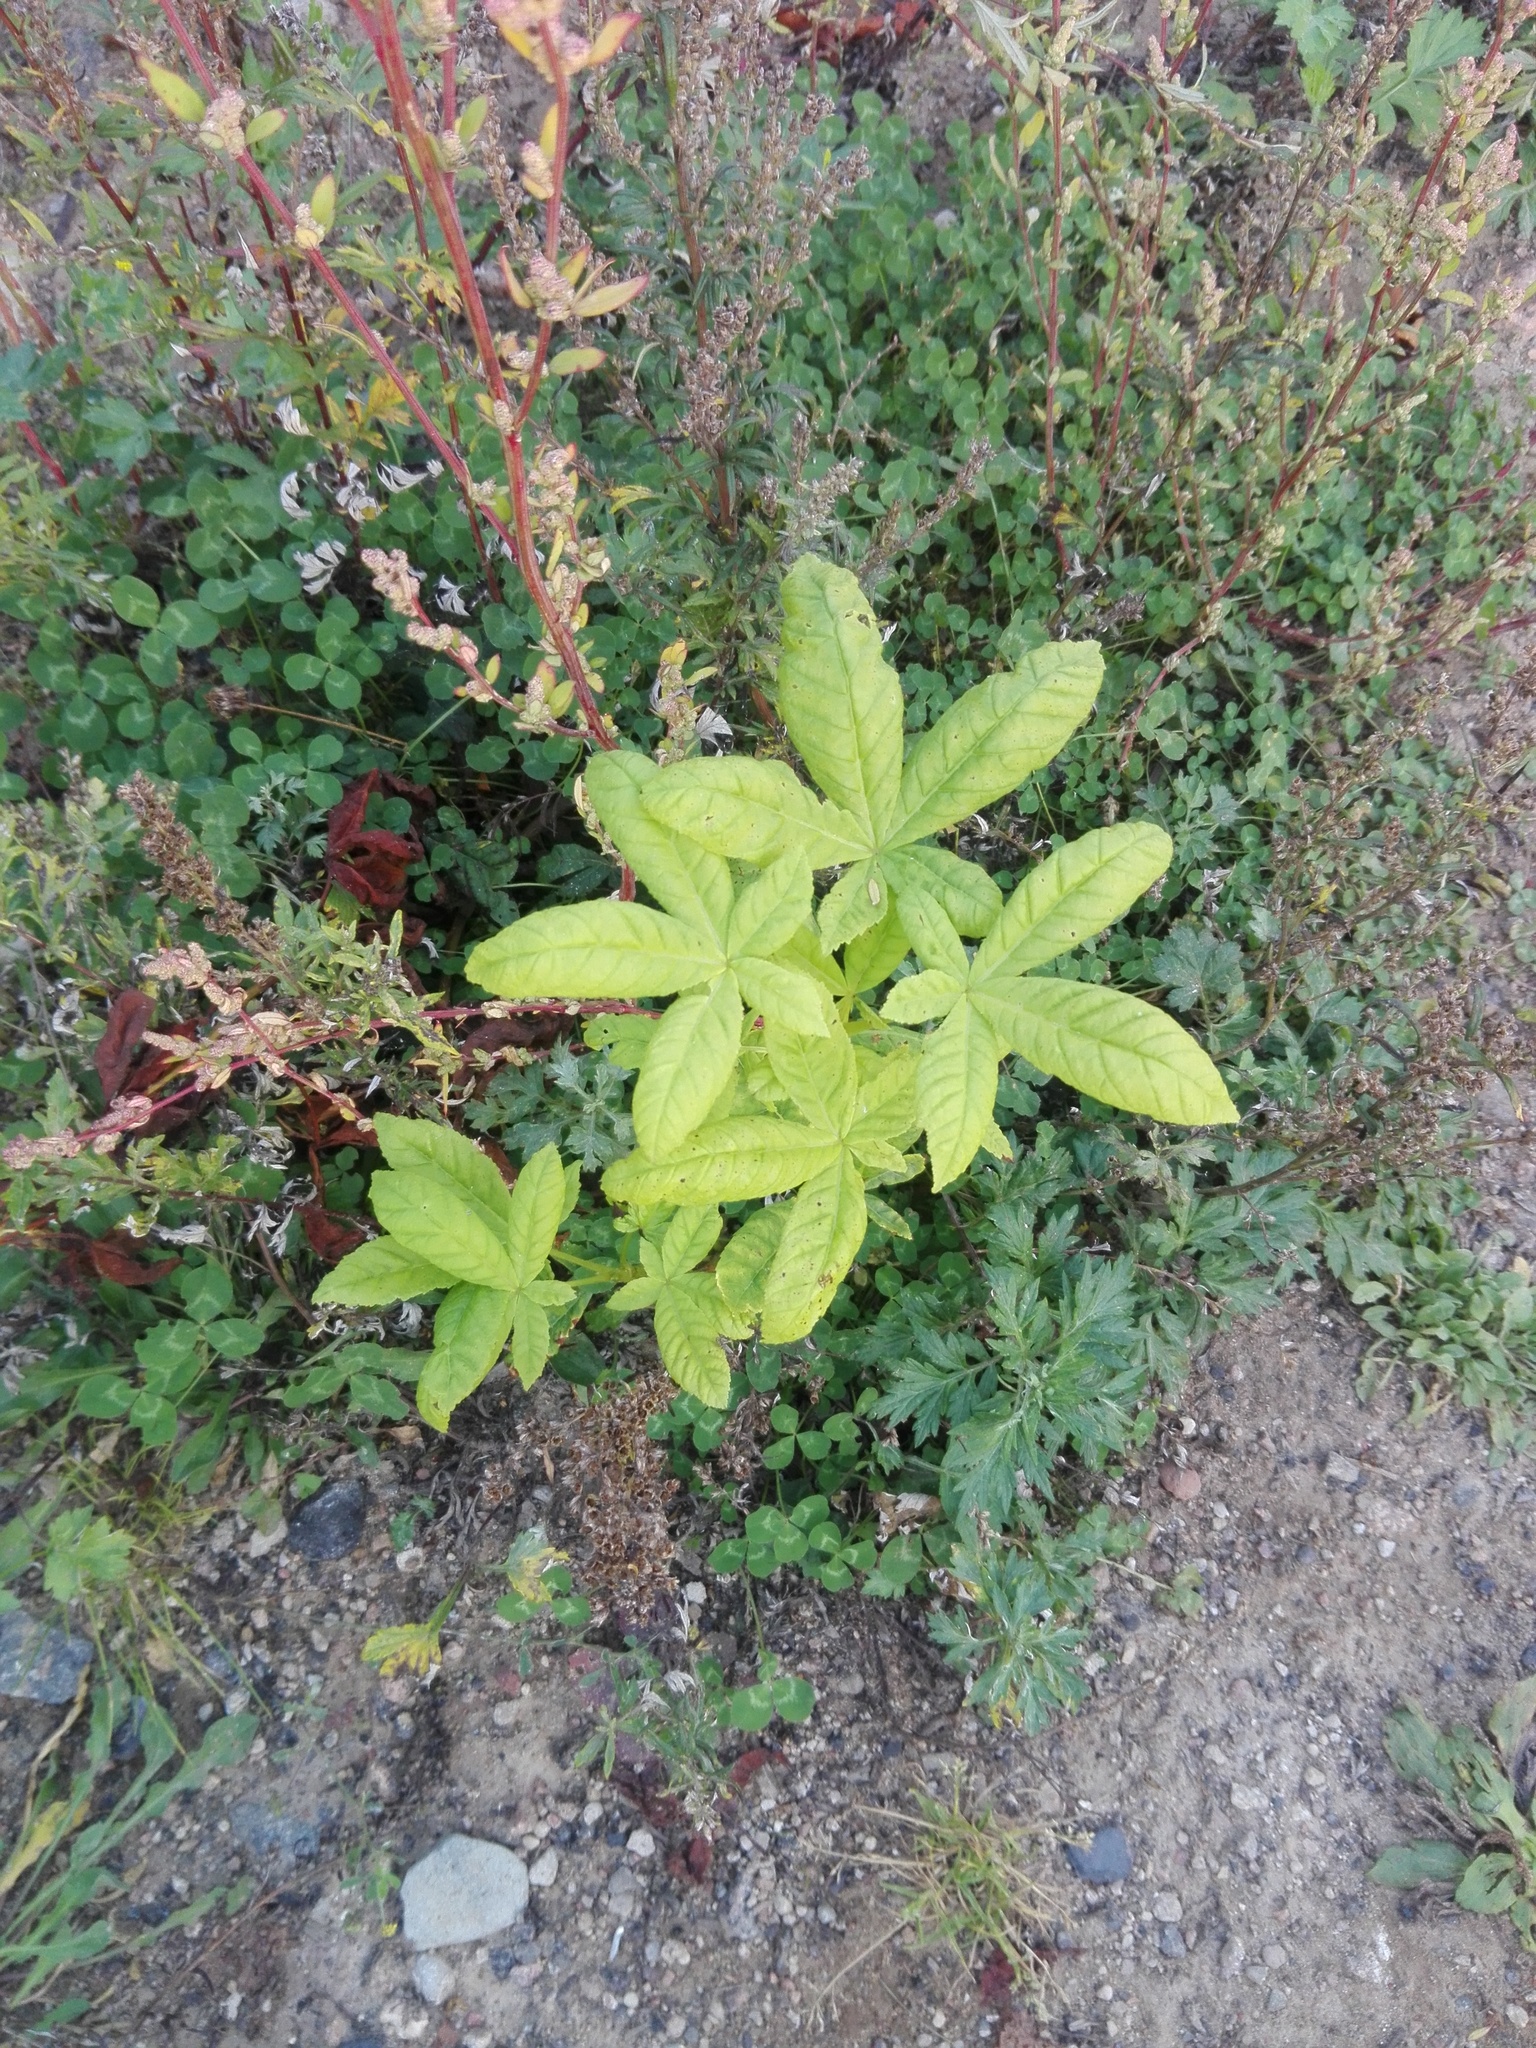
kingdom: Plantae
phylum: Tracheophyta
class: Magnoliopsida
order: Sapindales
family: Sapindaceae
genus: Aesculus
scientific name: Aesculus hippocastanum
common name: Horse-chestnut
